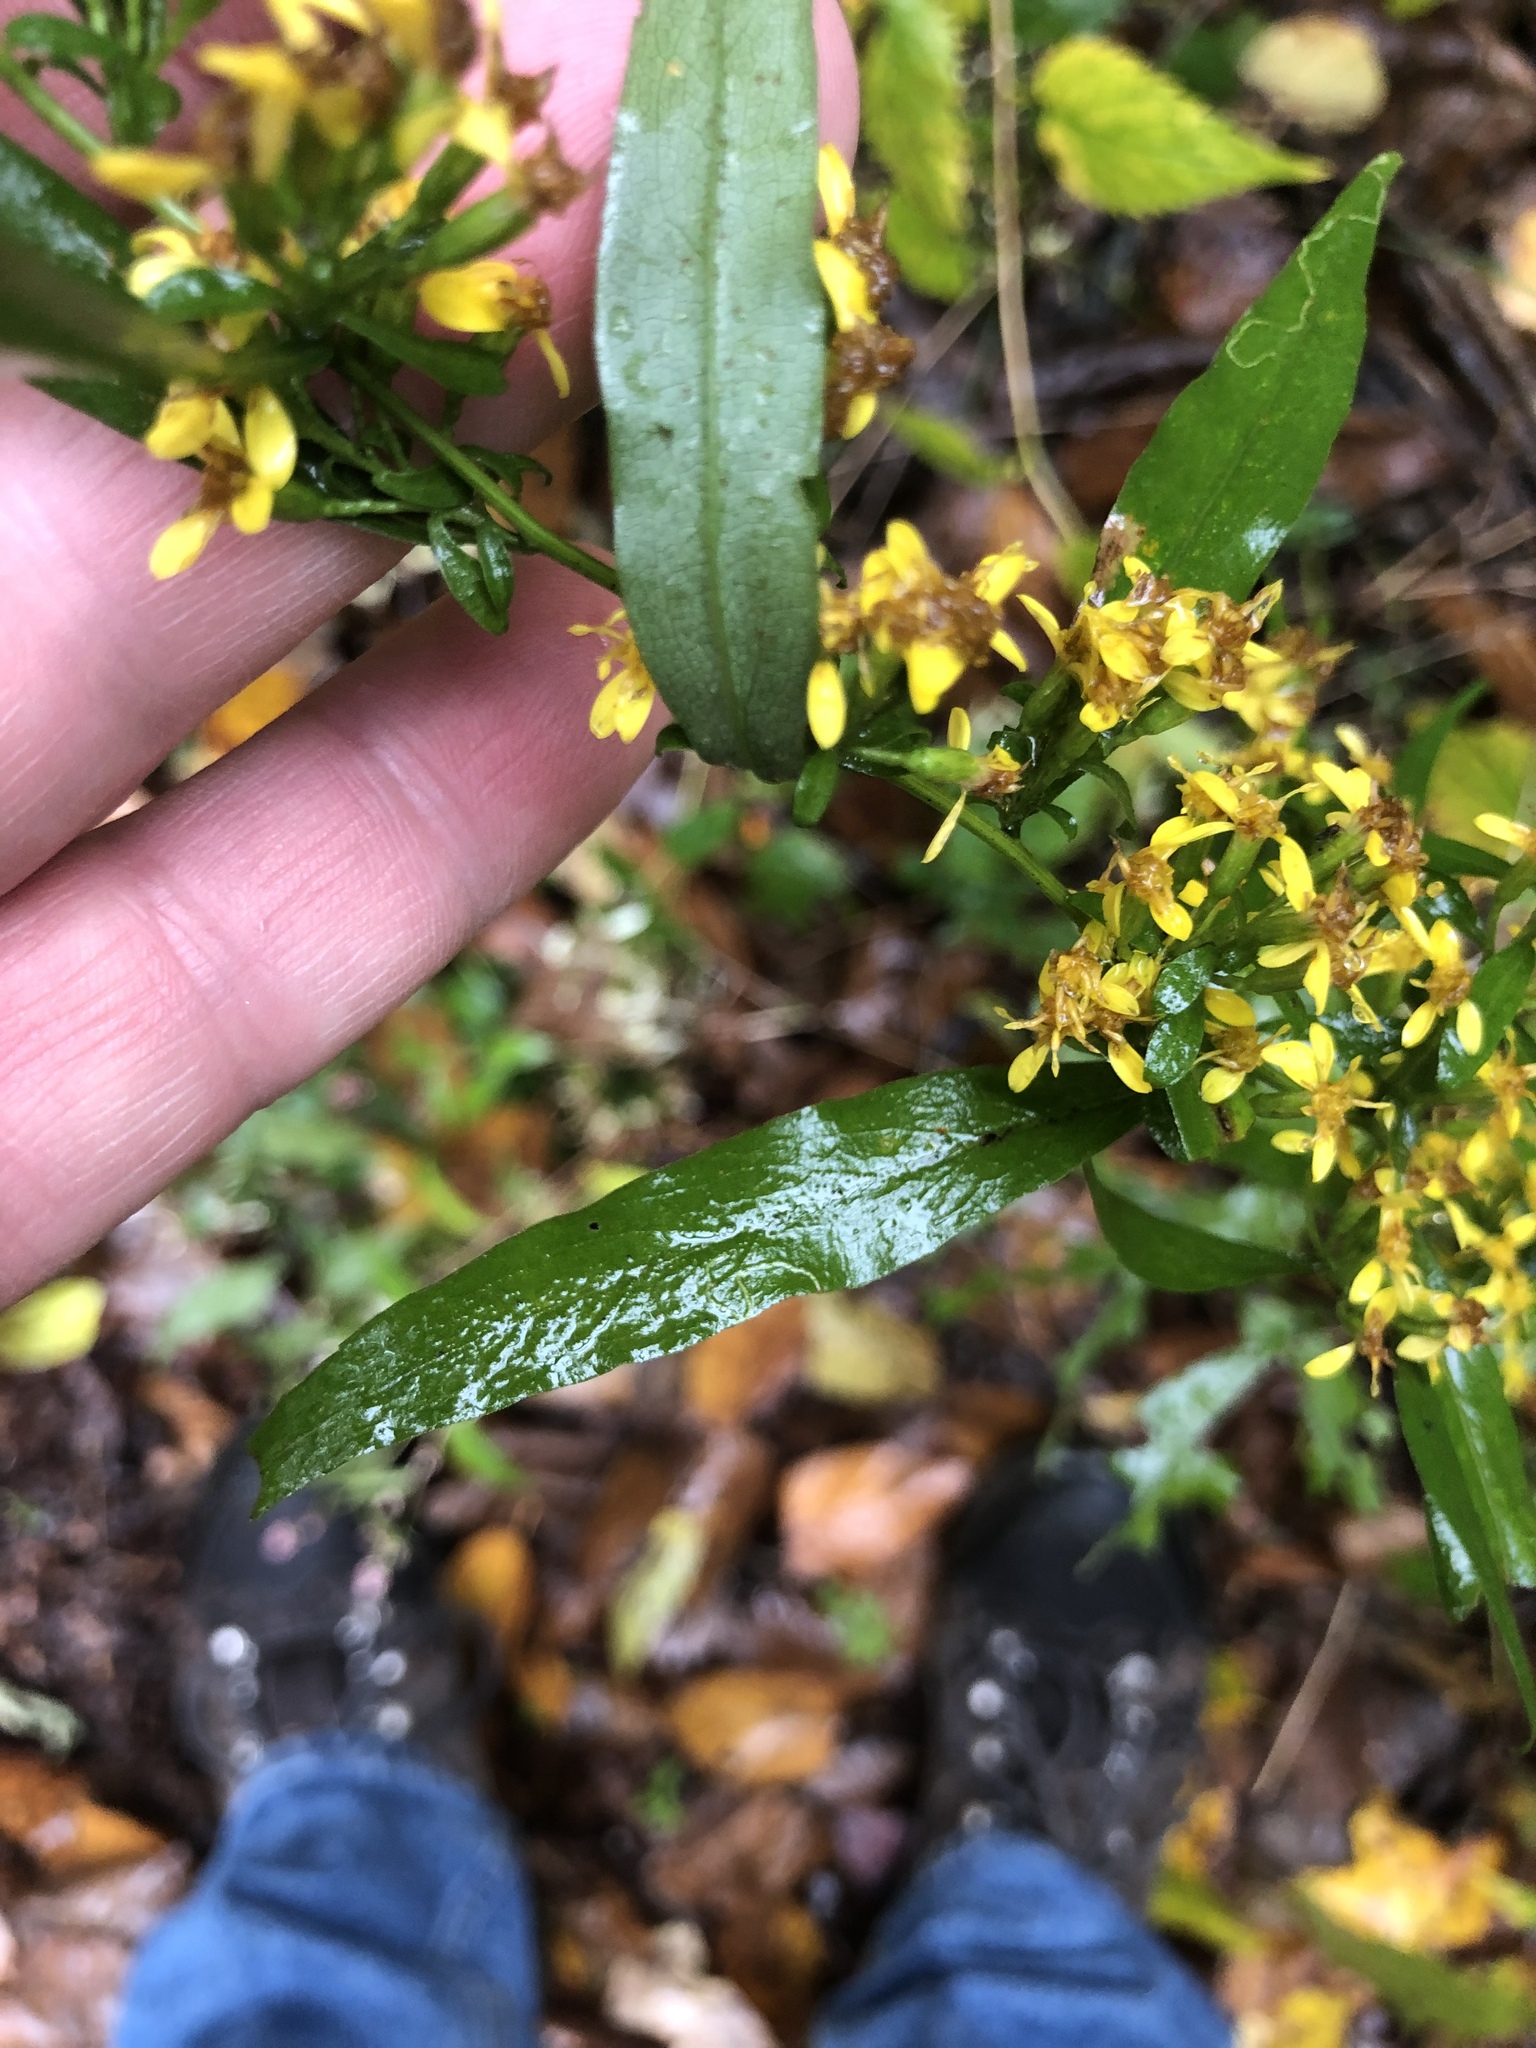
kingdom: Plantae
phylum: Tracheophyta
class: Magnoliopsida
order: Asterales
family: Asteraceae
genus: Solidago
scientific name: Solidago caesia
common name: Woodland goldenrod
